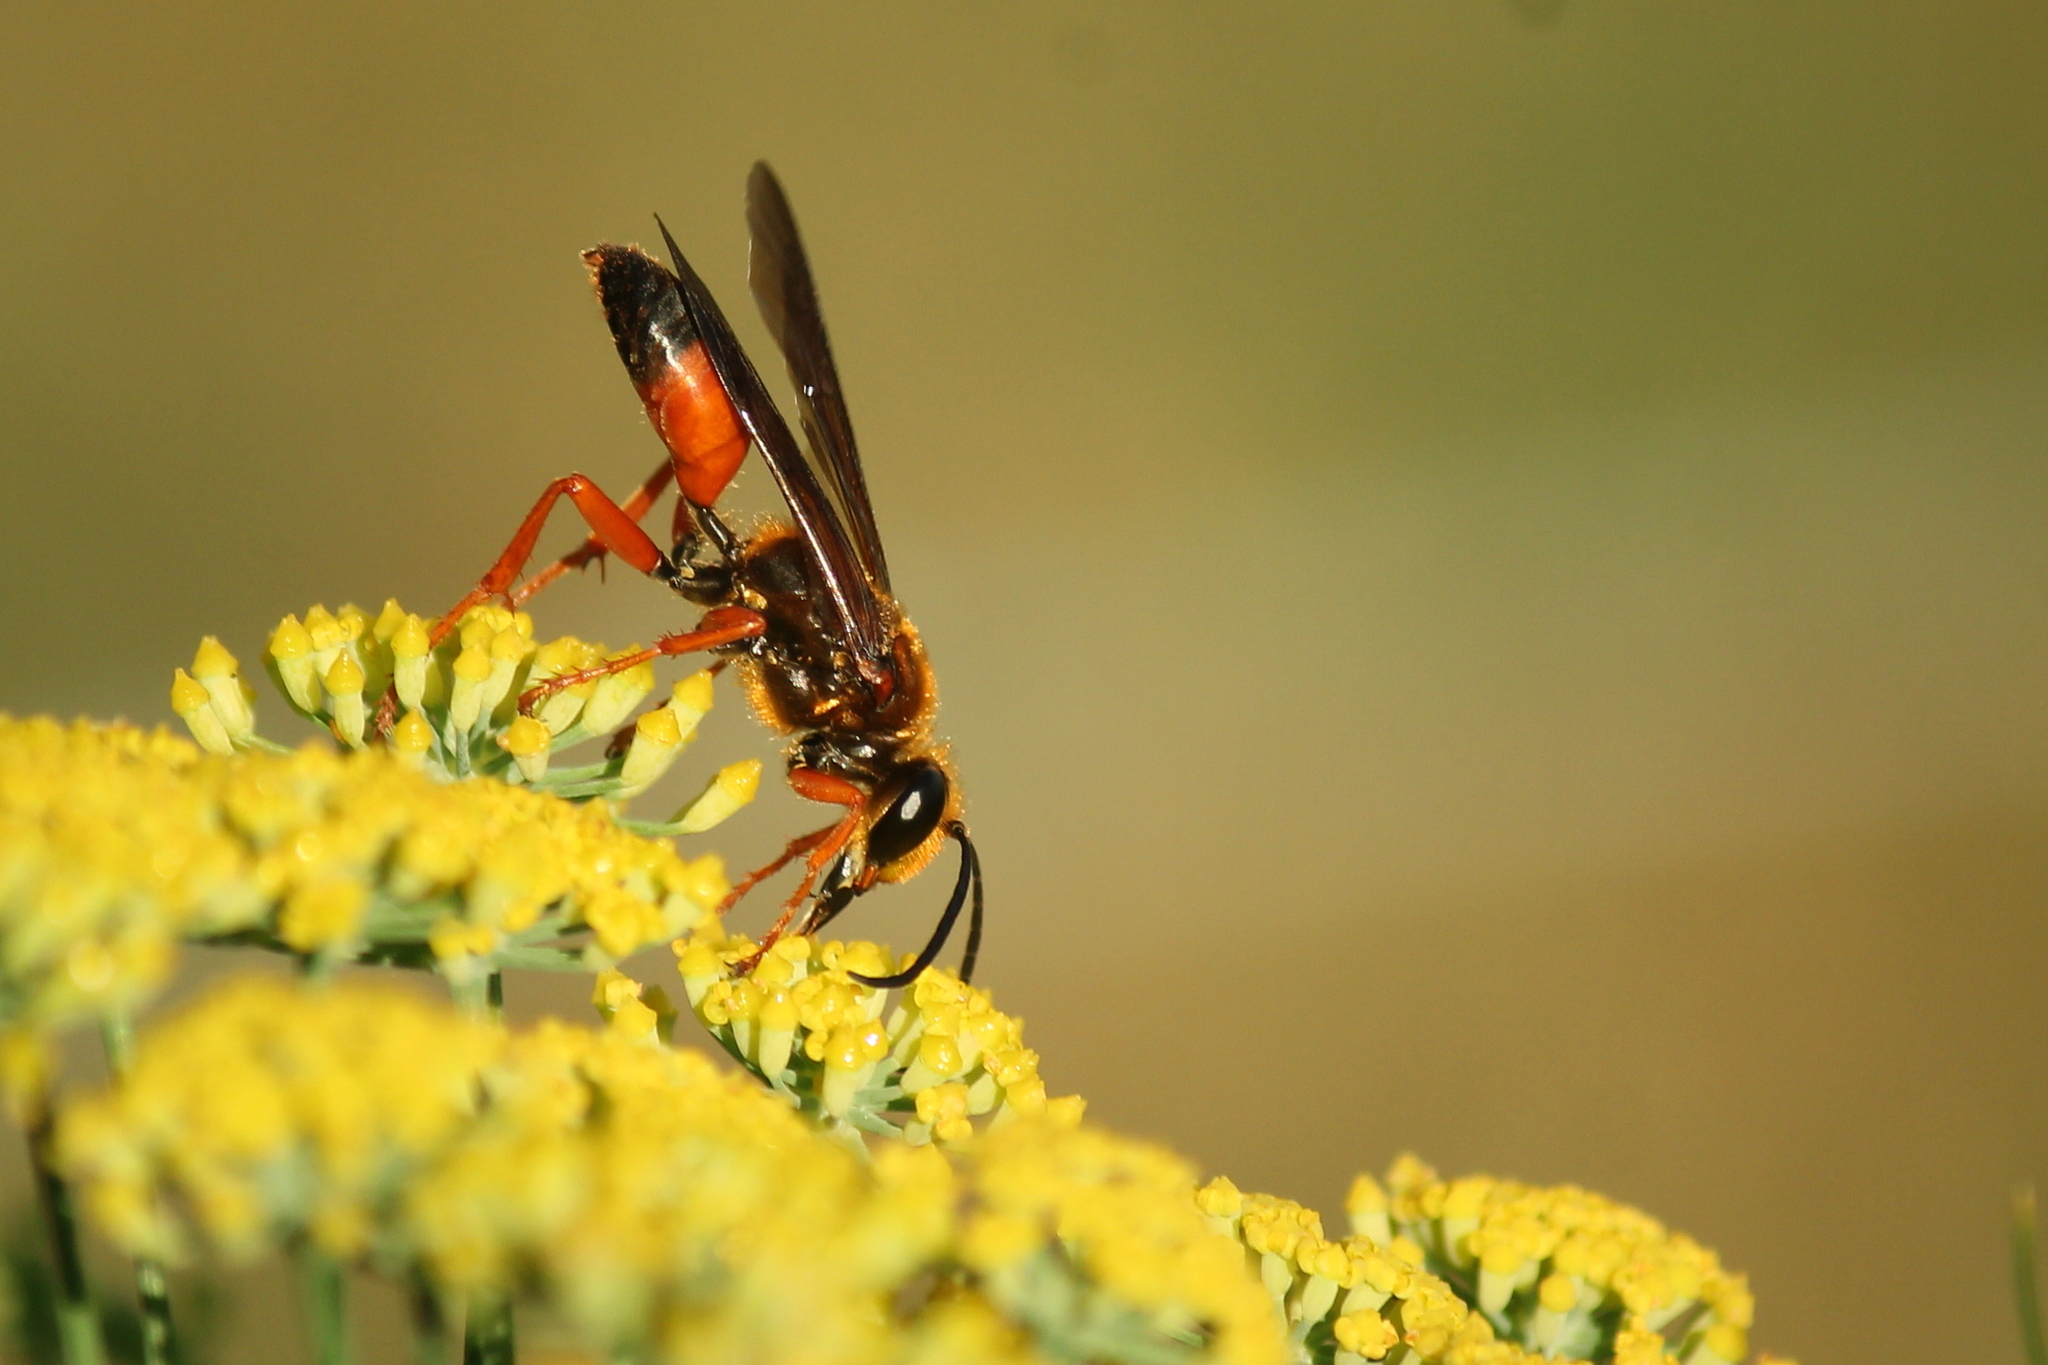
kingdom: Animalia
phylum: Arthropoda
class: Insecta
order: Hymenoptera
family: Sphecidae
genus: Sphex
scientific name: Sphex ichneumoneus
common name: Great golden digger wasp
